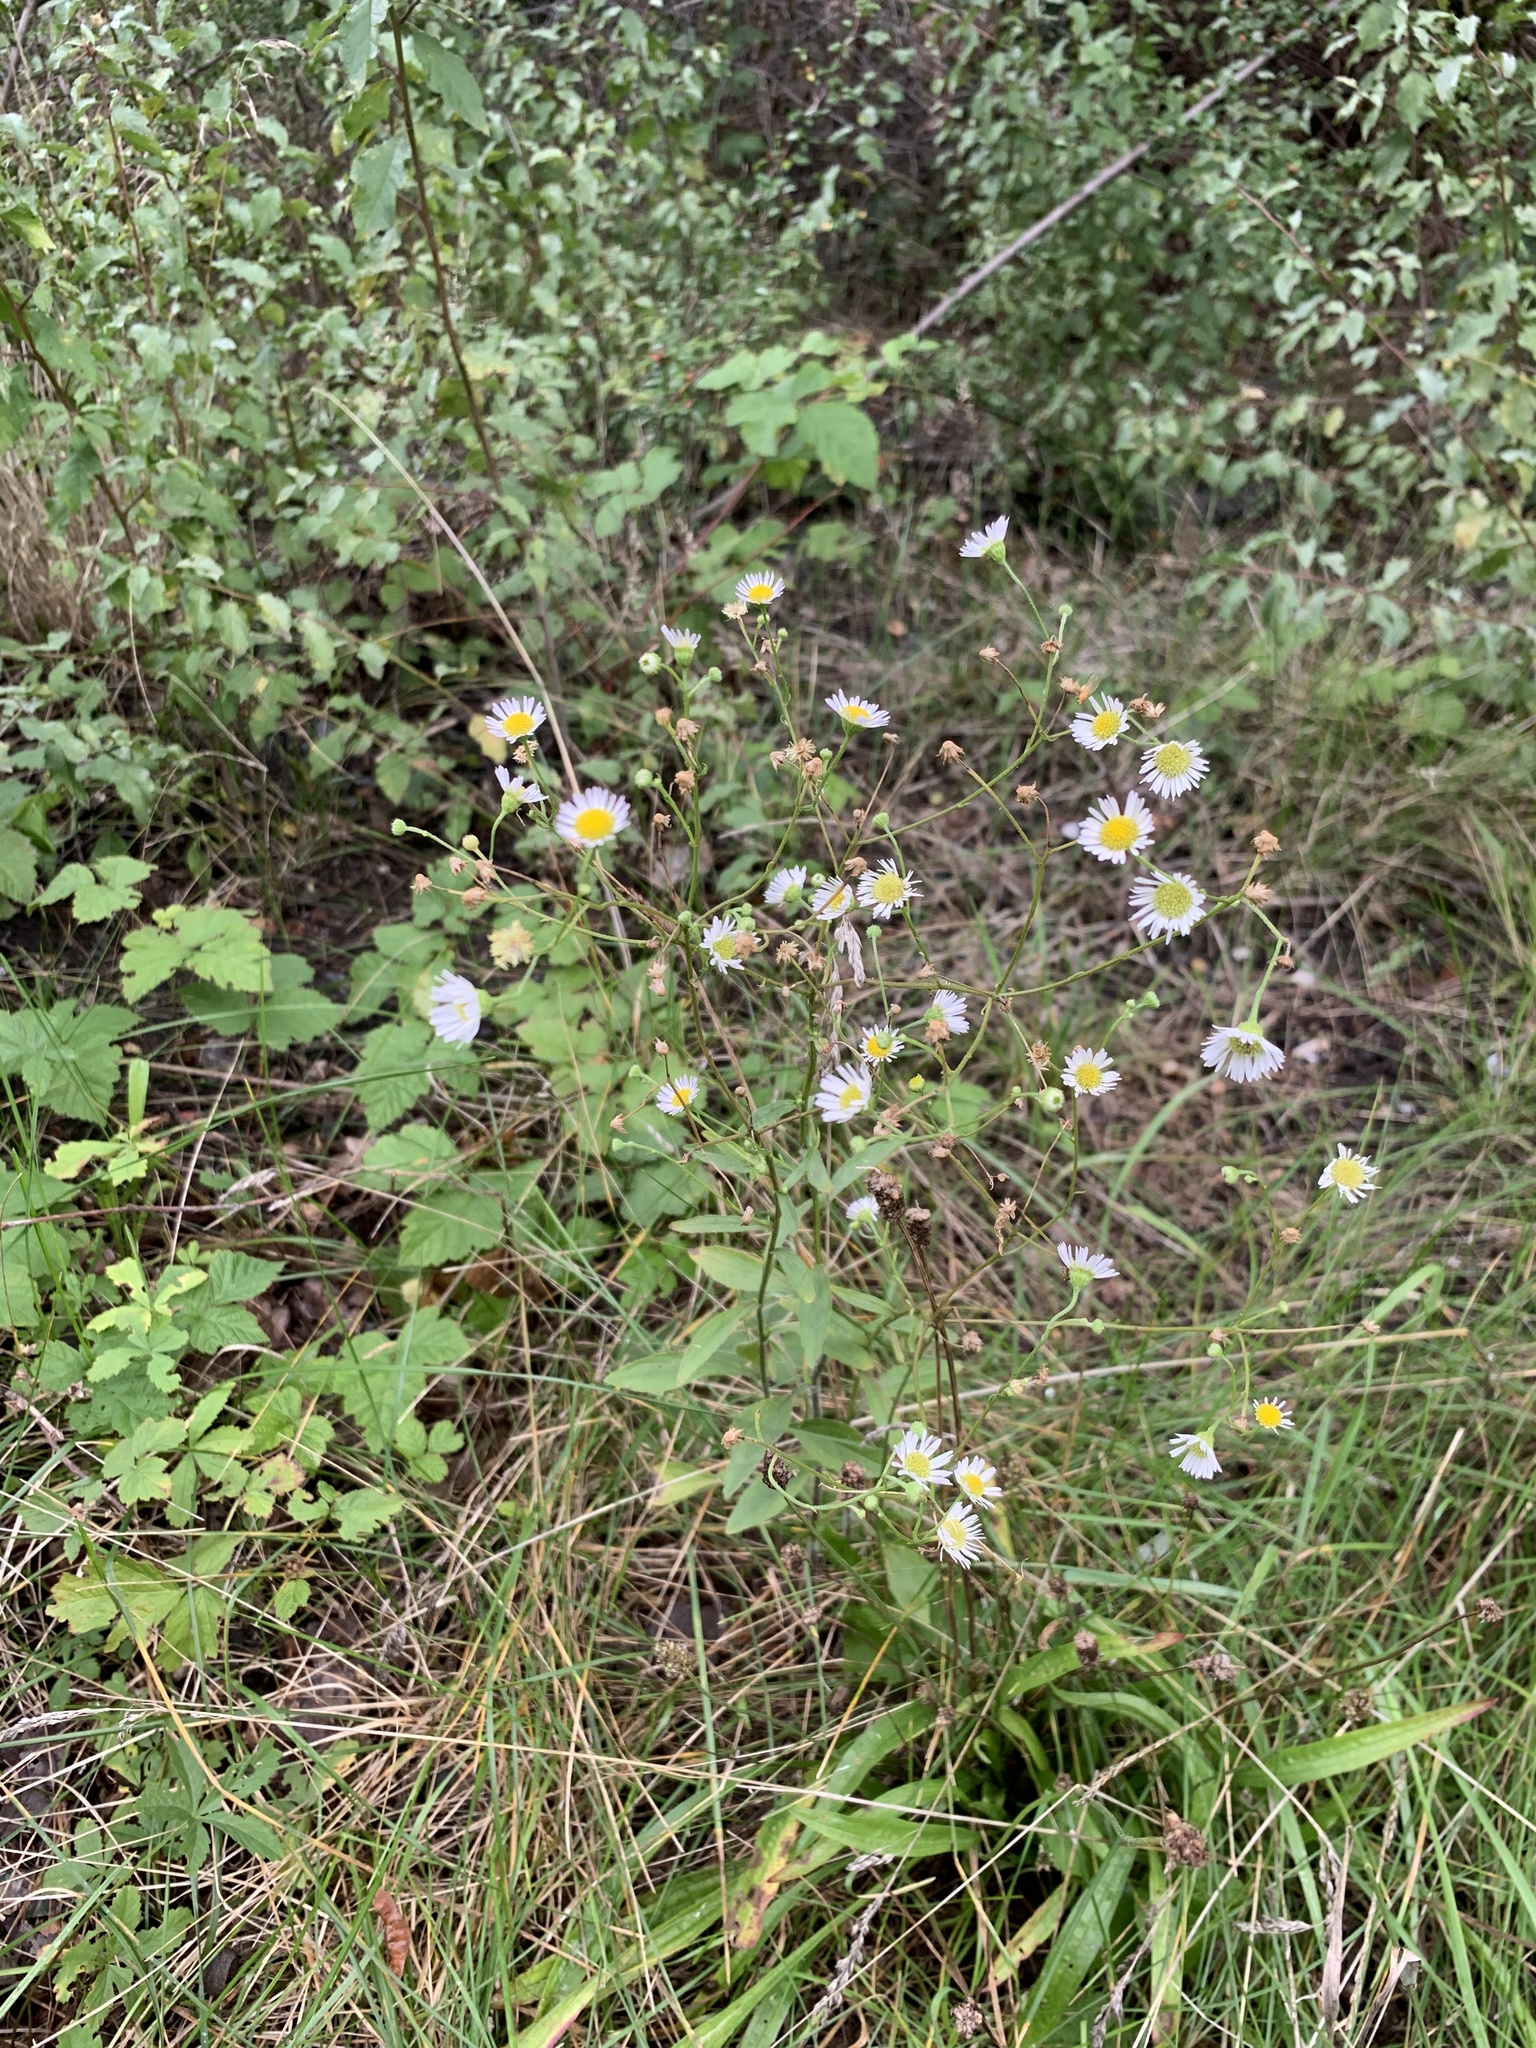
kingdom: Plantae
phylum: Tracheophyta
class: Magnoliopsida
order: Asterales
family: Asteraceae
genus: Erigeron
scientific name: Erigeron annuus
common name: Tall fleabane
